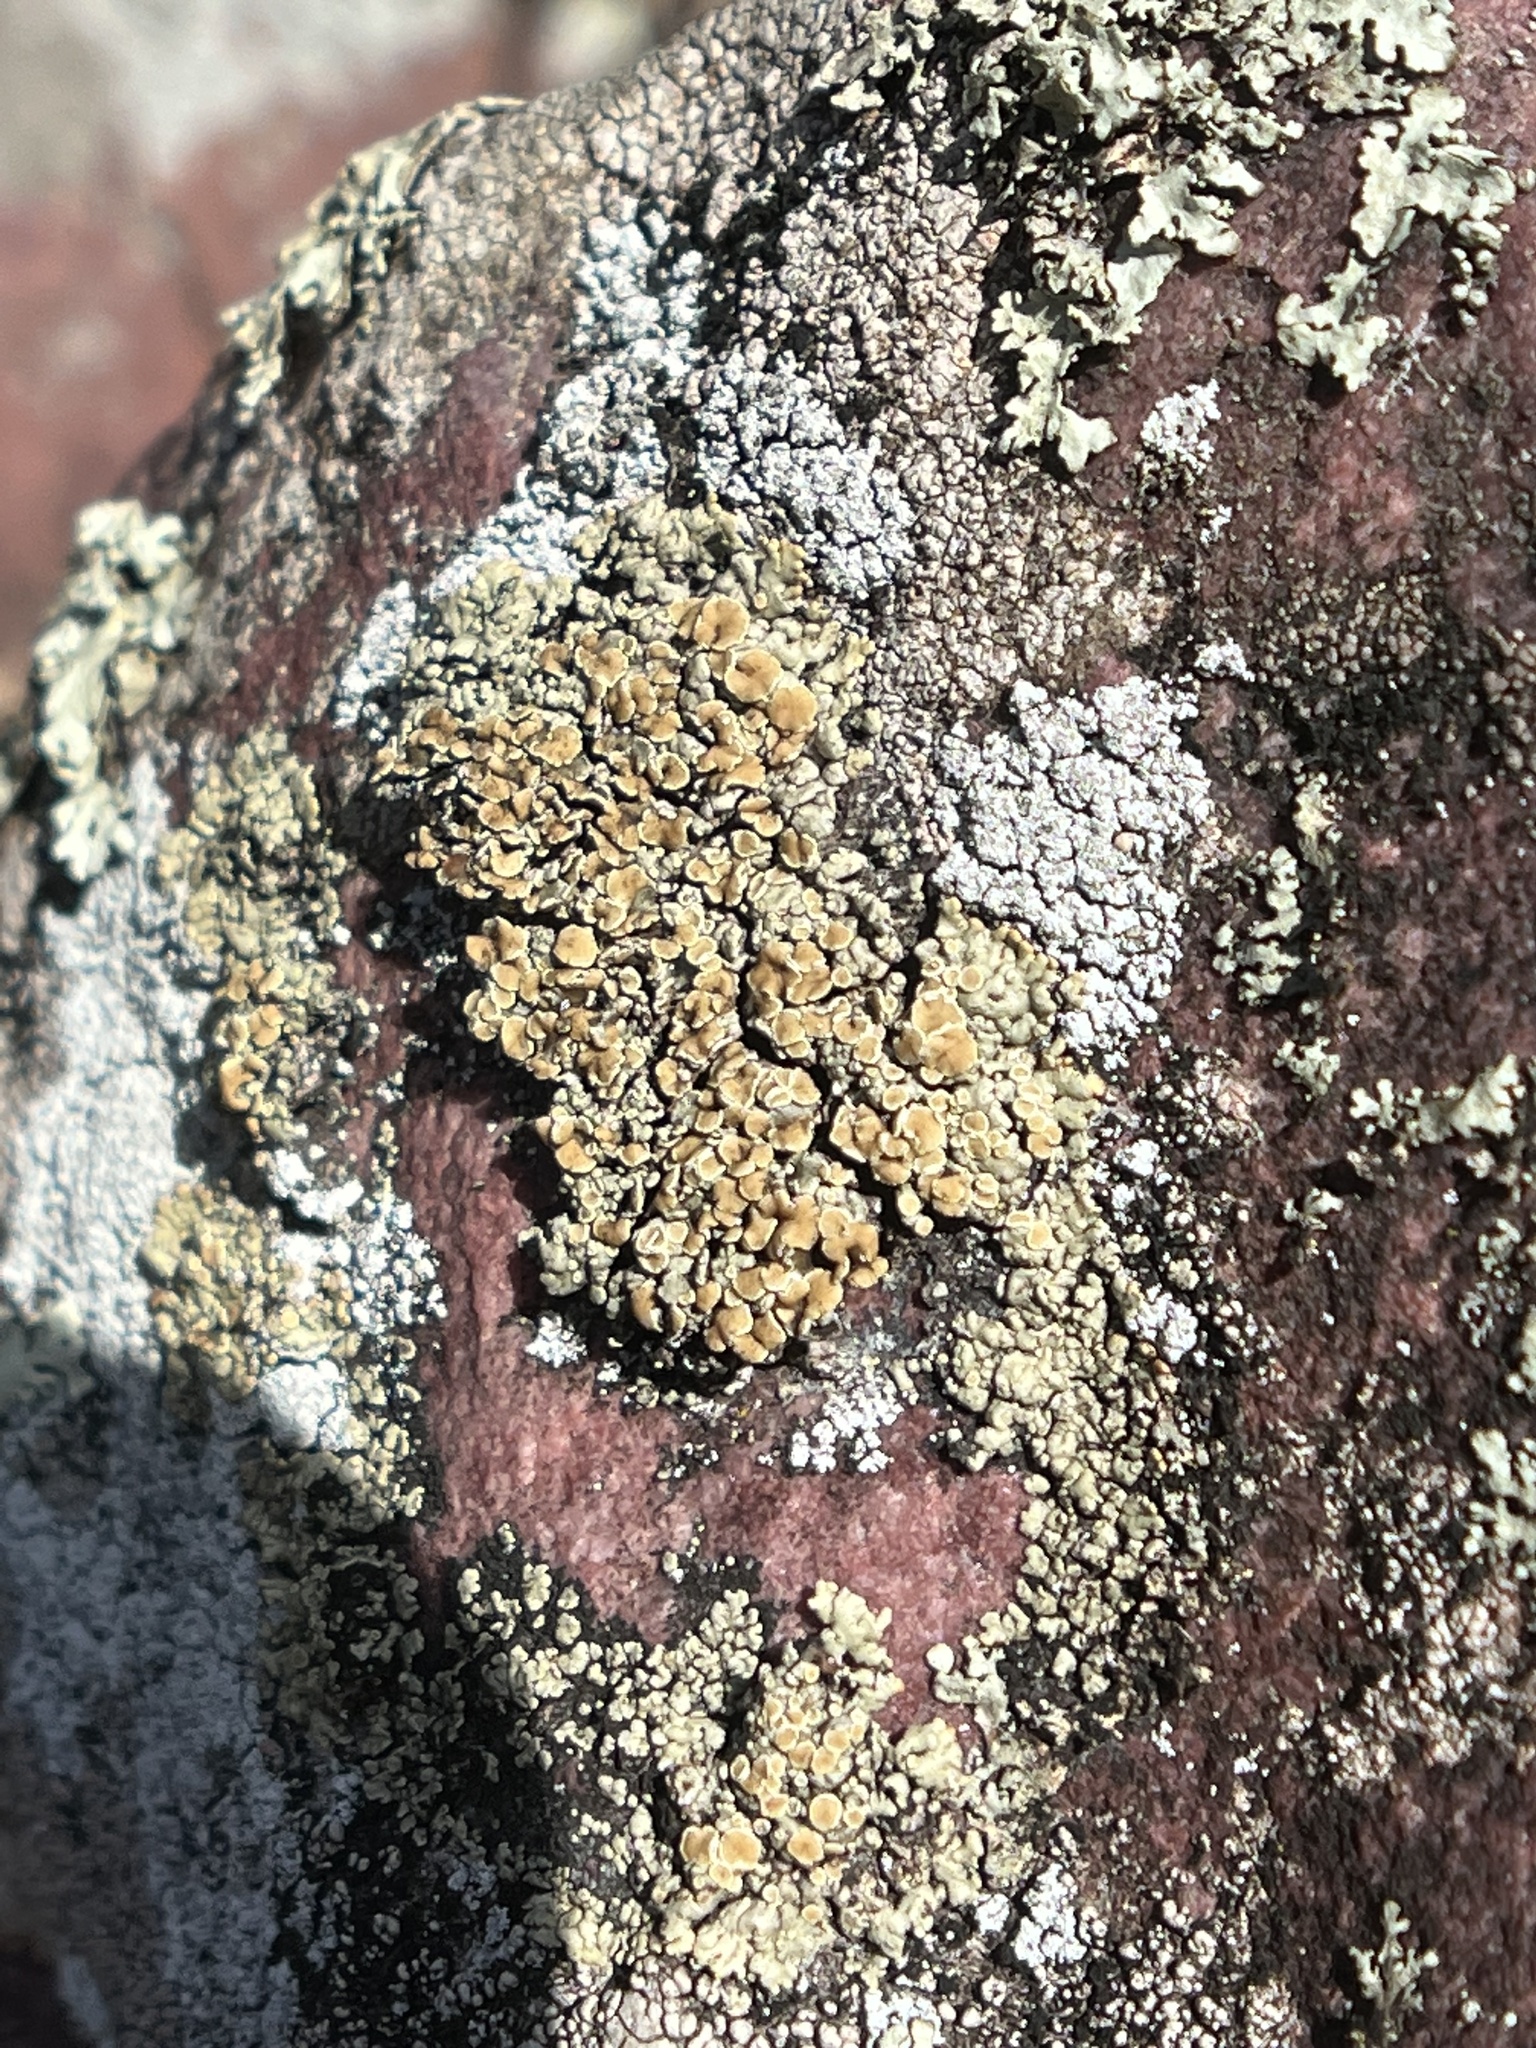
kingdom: Fungi
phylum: Ascomycota
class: Lecanoromycetes
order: Lecanorales
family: Lecanoraceae
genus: Sedelnikovaea
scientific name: Sedelnikovaea subdiscrepans
